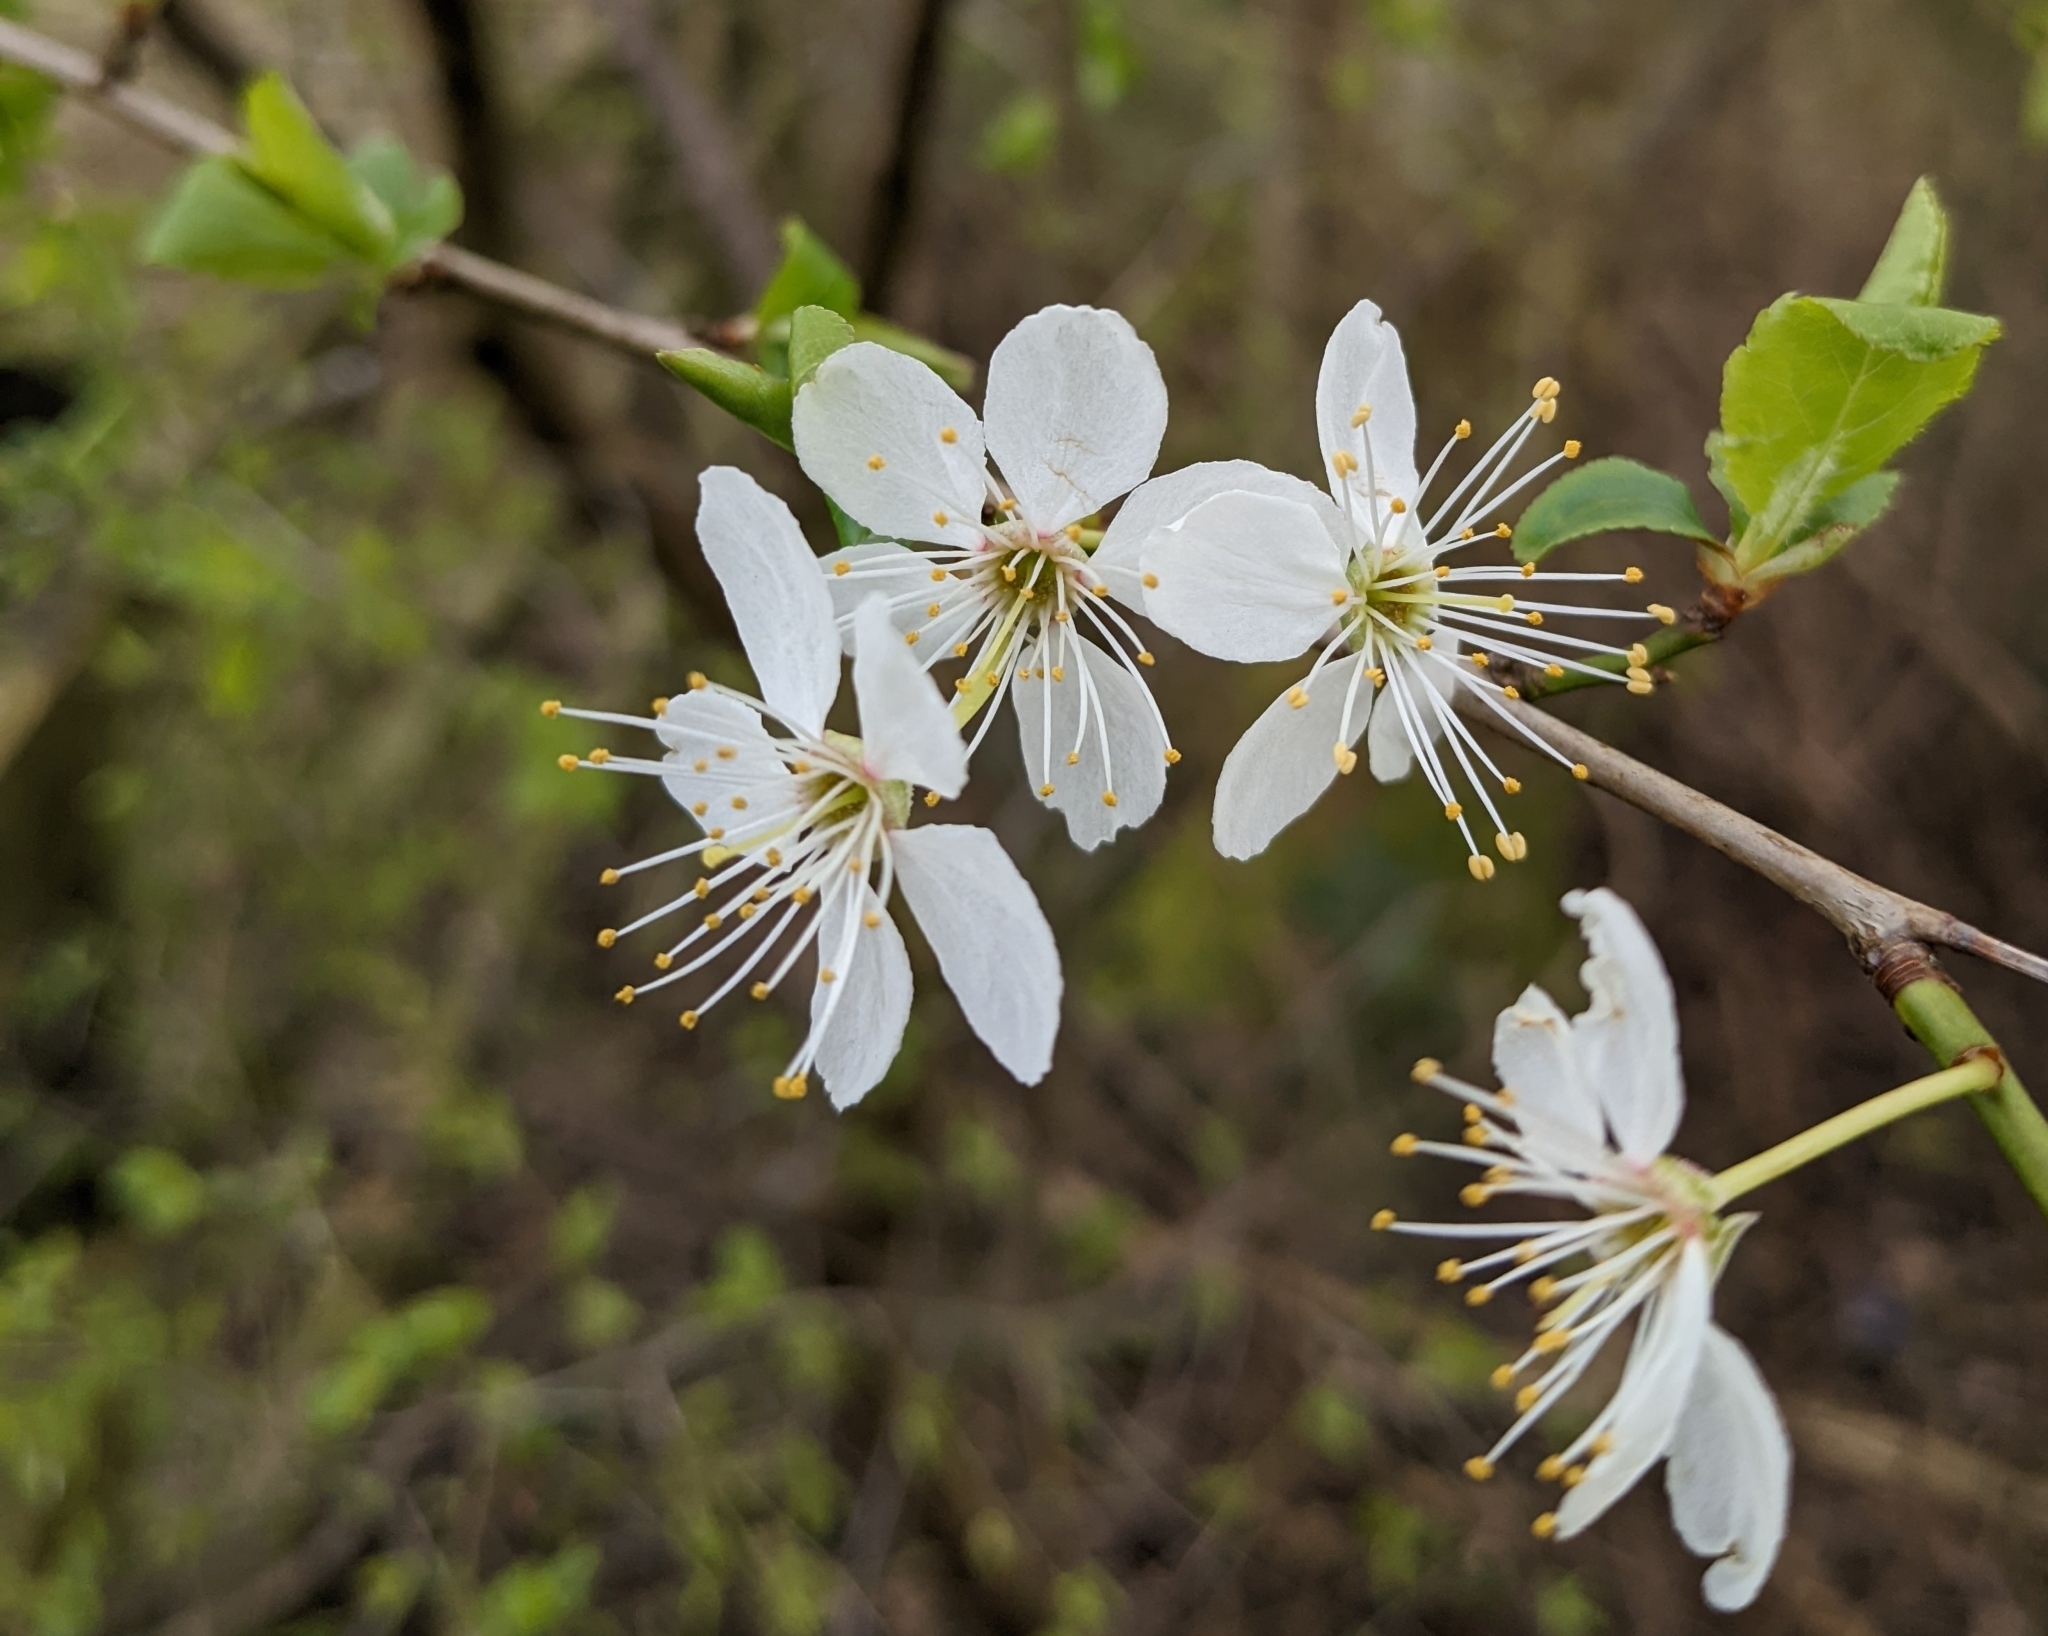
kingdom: Plantae
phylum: Tracheophyta
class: Magnoliopsida
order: Rosales
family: Rosaceae
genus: Prunus
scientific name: Prunus cerasifera
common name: Cherry plum
